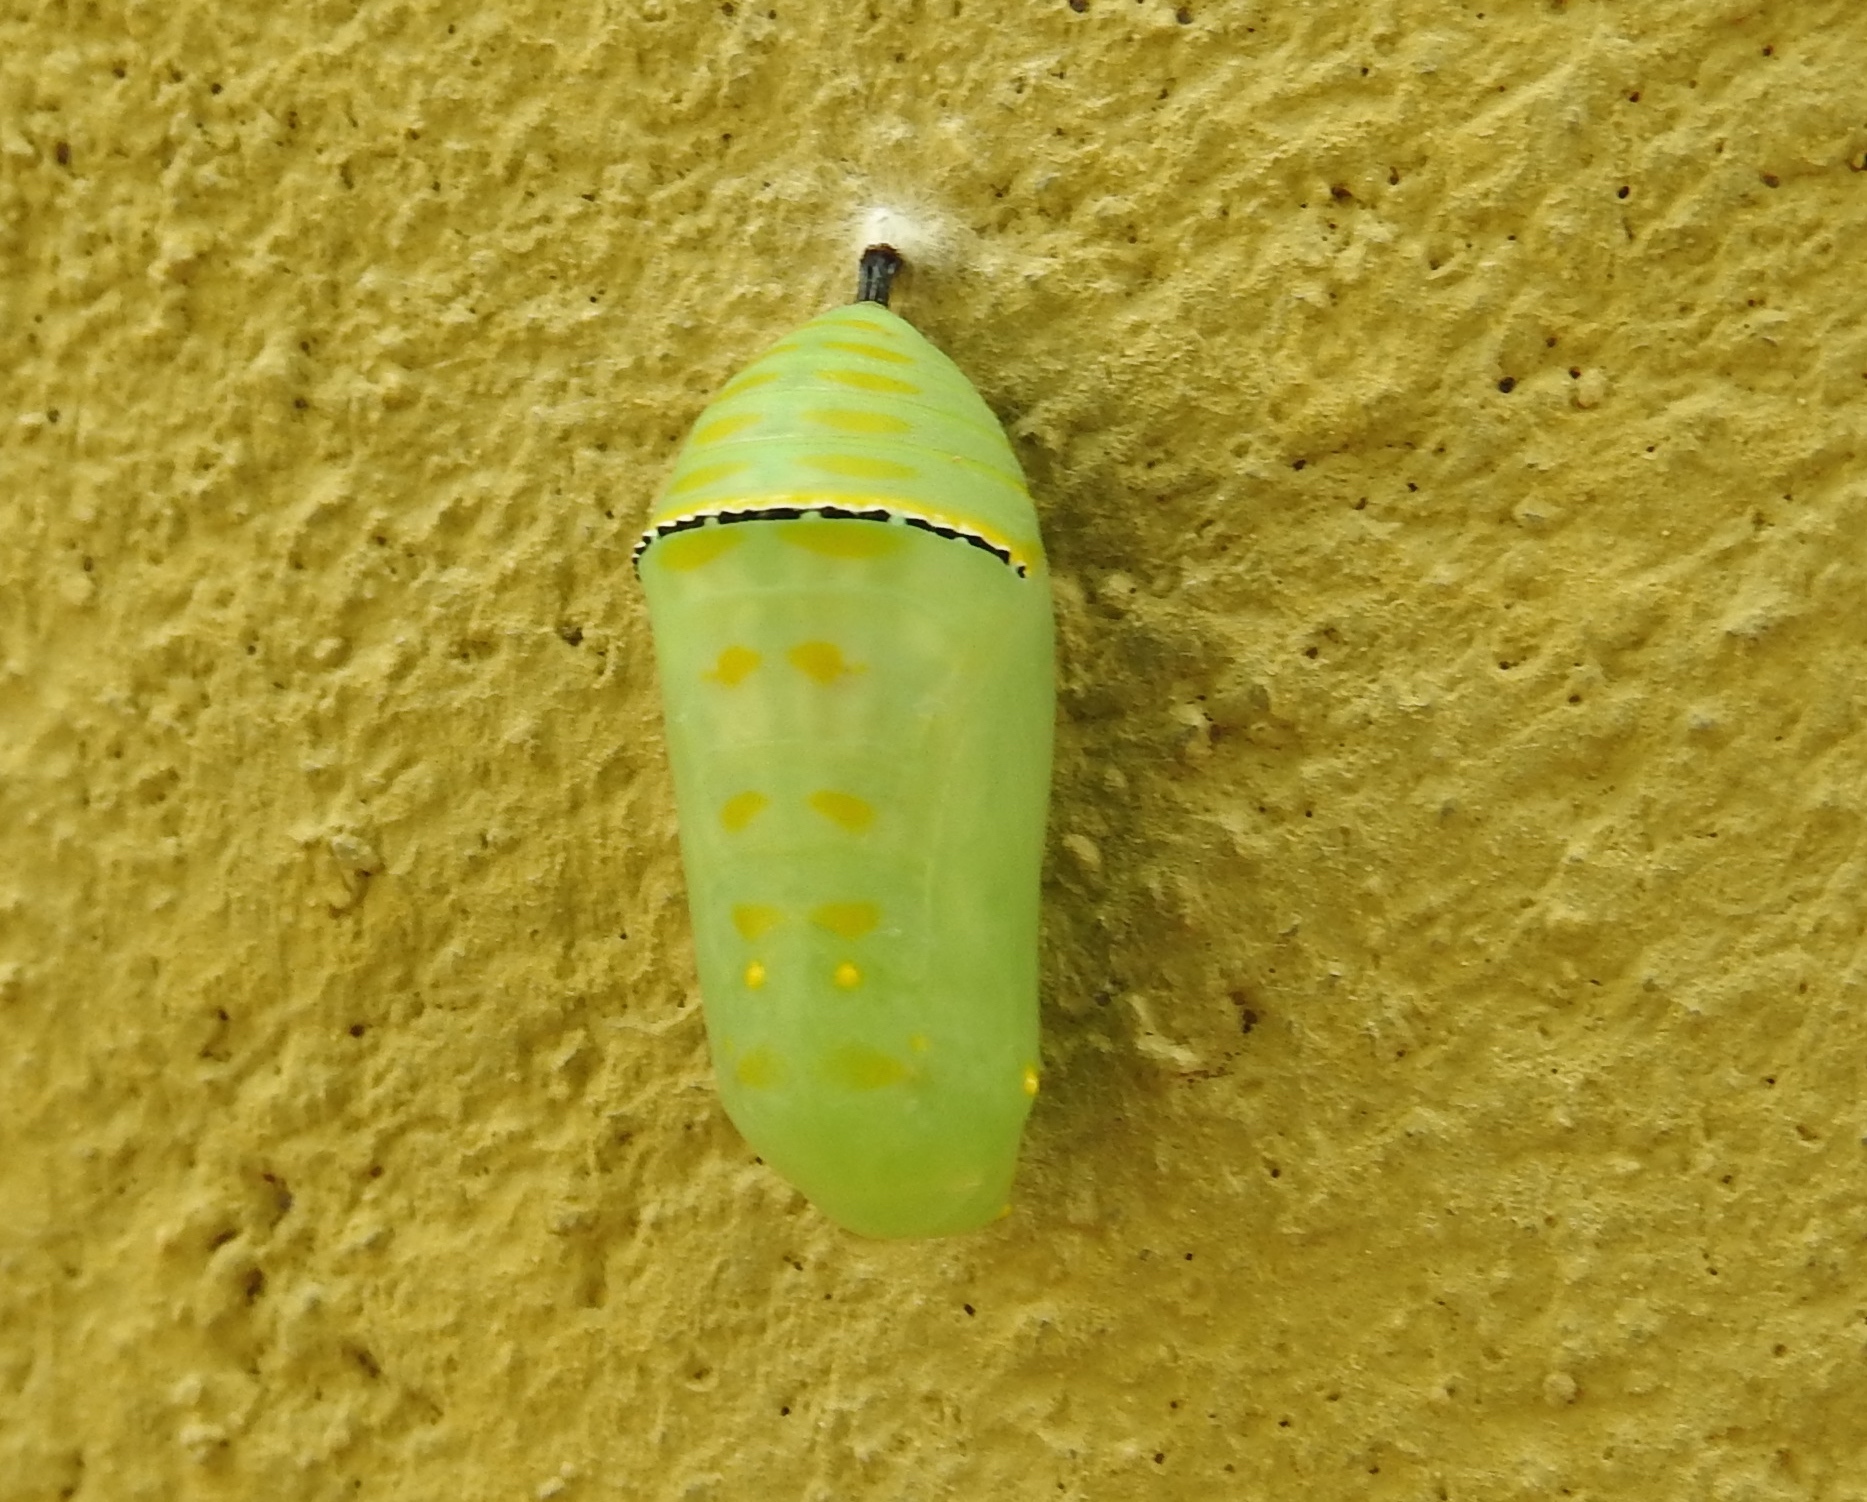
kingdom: Animalia
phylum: Arthropoda
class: Insecta
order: Lepidoptera
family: Nymphalidae
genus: Danaus
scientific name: Danaus
